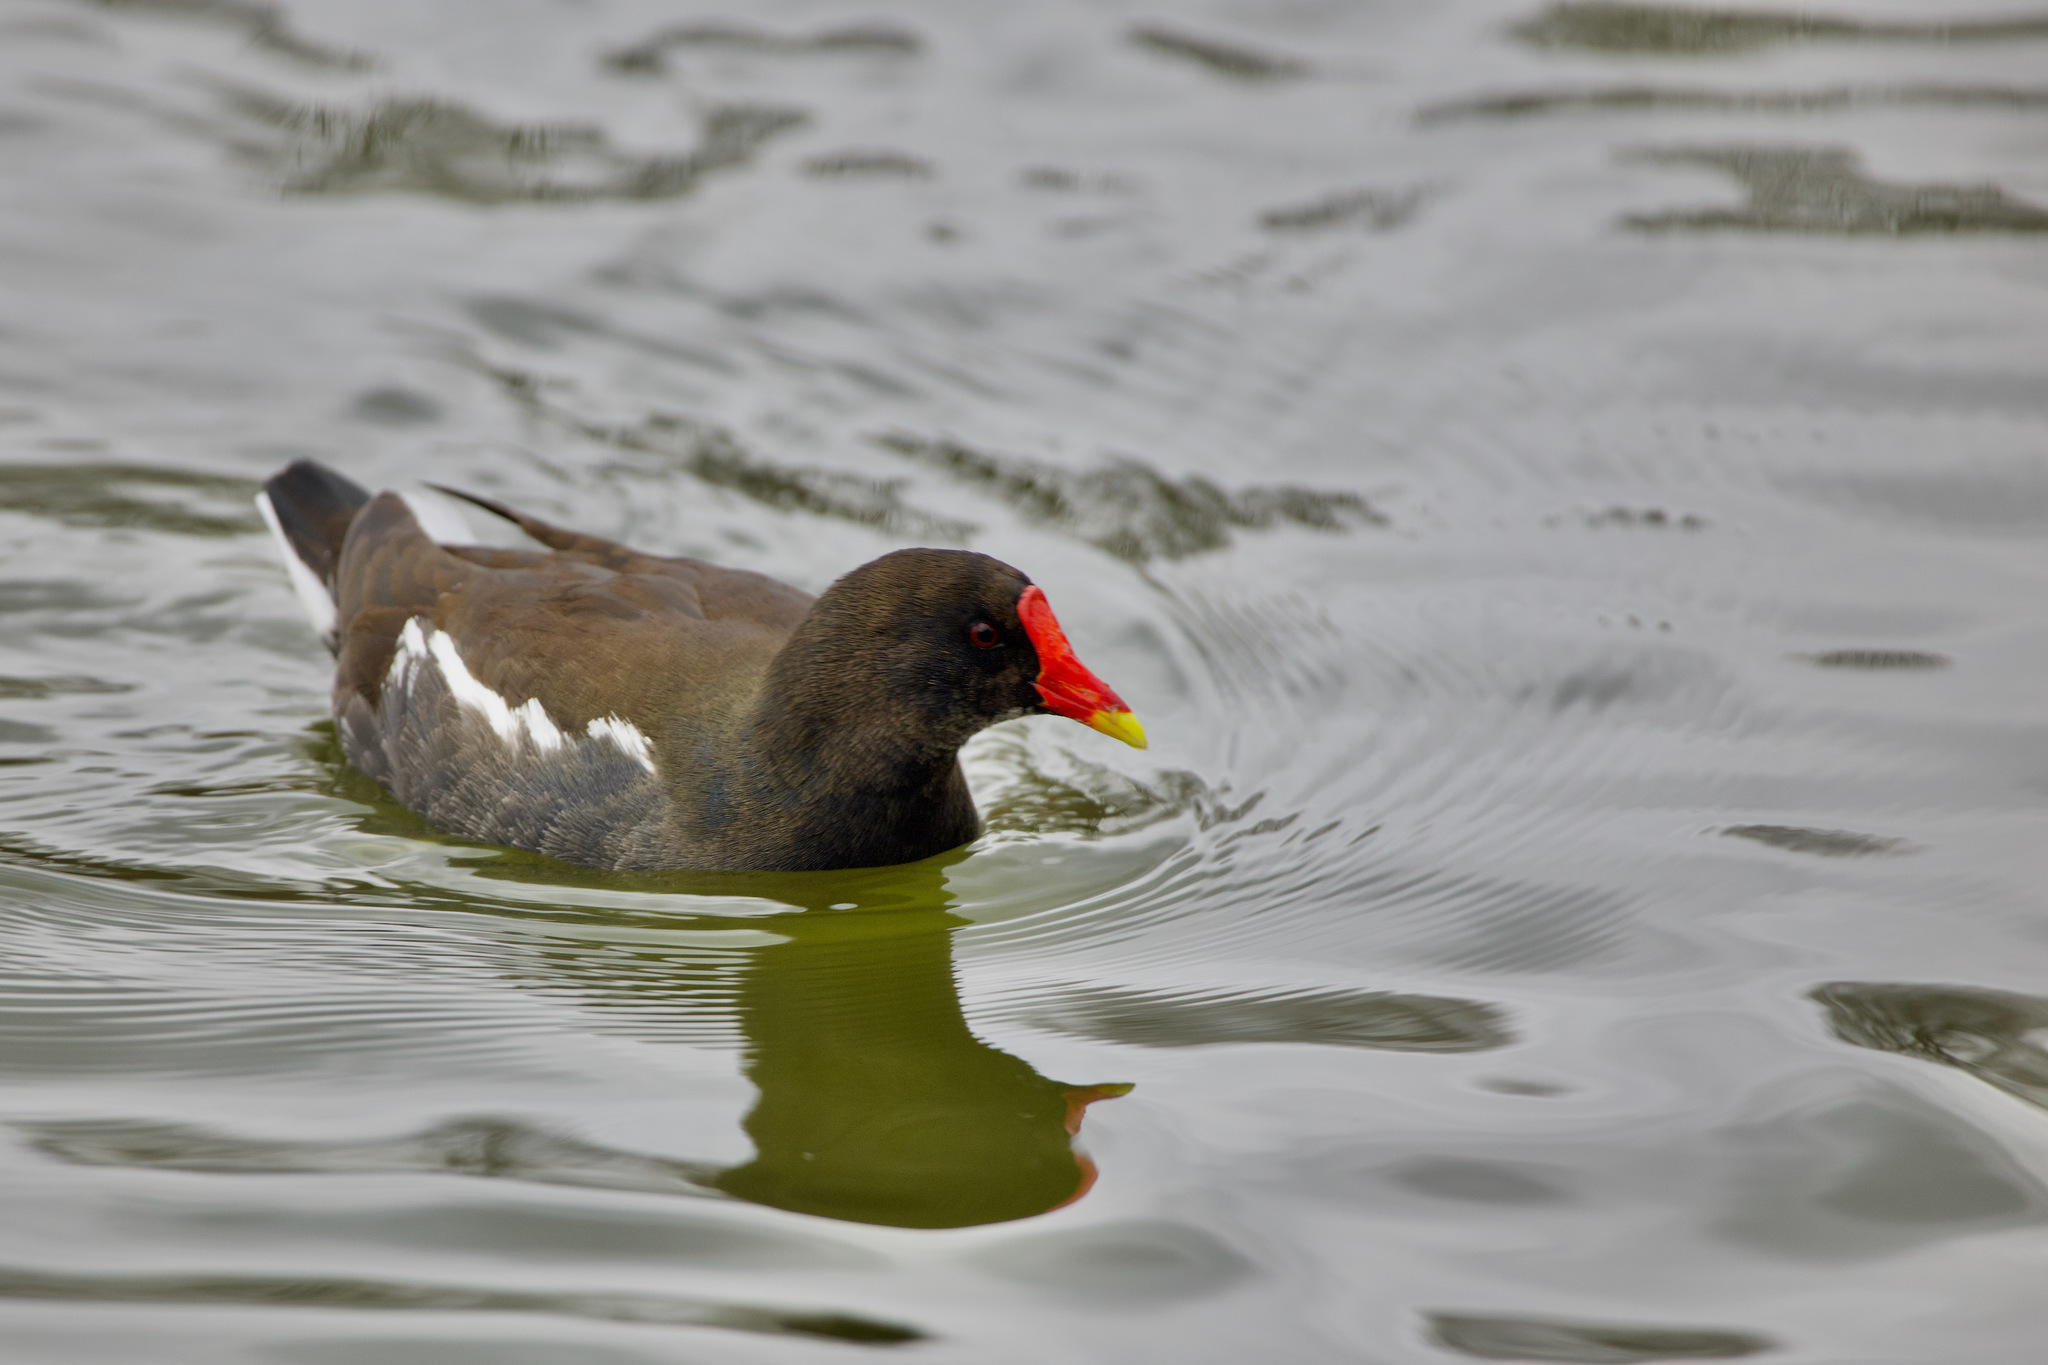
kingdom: Animalia
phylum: Chordata
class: Aves
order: Gruiformes
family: Rallidae
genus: Gallinula
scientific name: Gallinula chloropus
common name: Common moorhen
